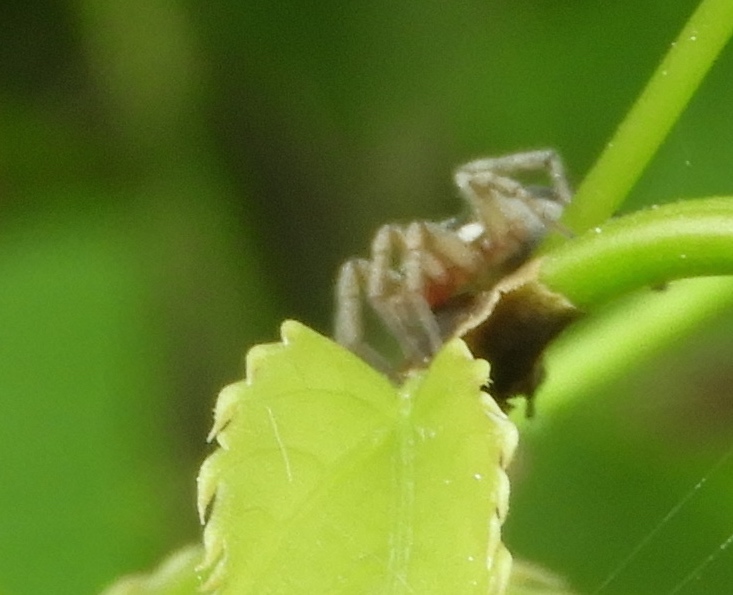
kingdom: Animalia
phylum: Arthropoda
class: Arachnida
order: Araneae
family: Gnaphosidae
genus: Cesonia
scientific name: Cesonia
